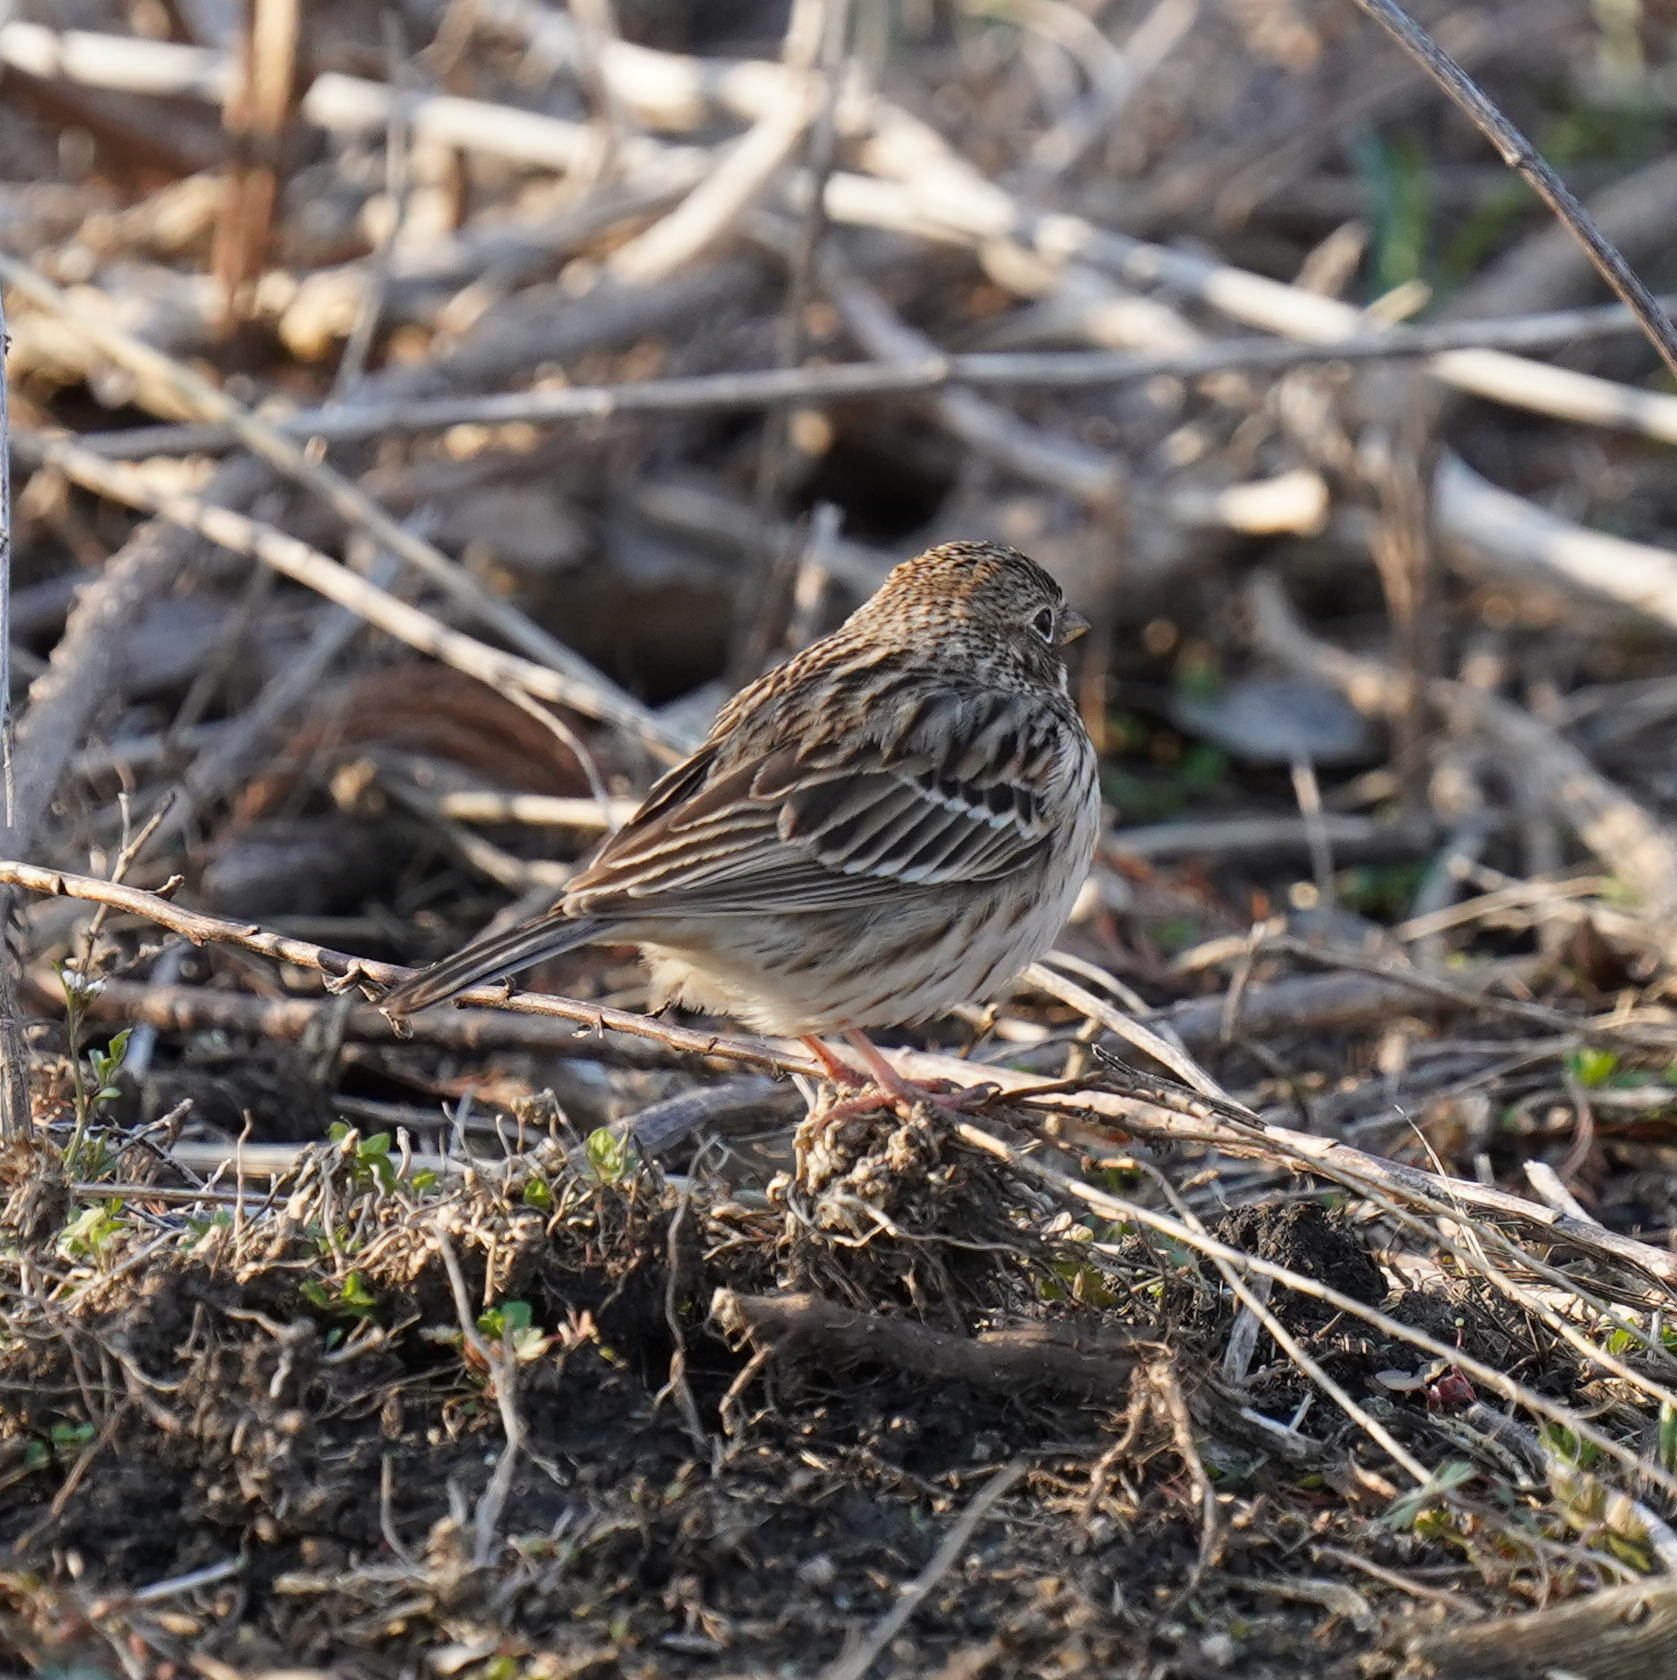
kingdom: Animalia
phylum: Chordata
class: Aves
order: Passeriformes
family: Passerellidae
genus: Pooecetes
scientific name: Pooecetes gramineus
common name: Vesper sparrow
